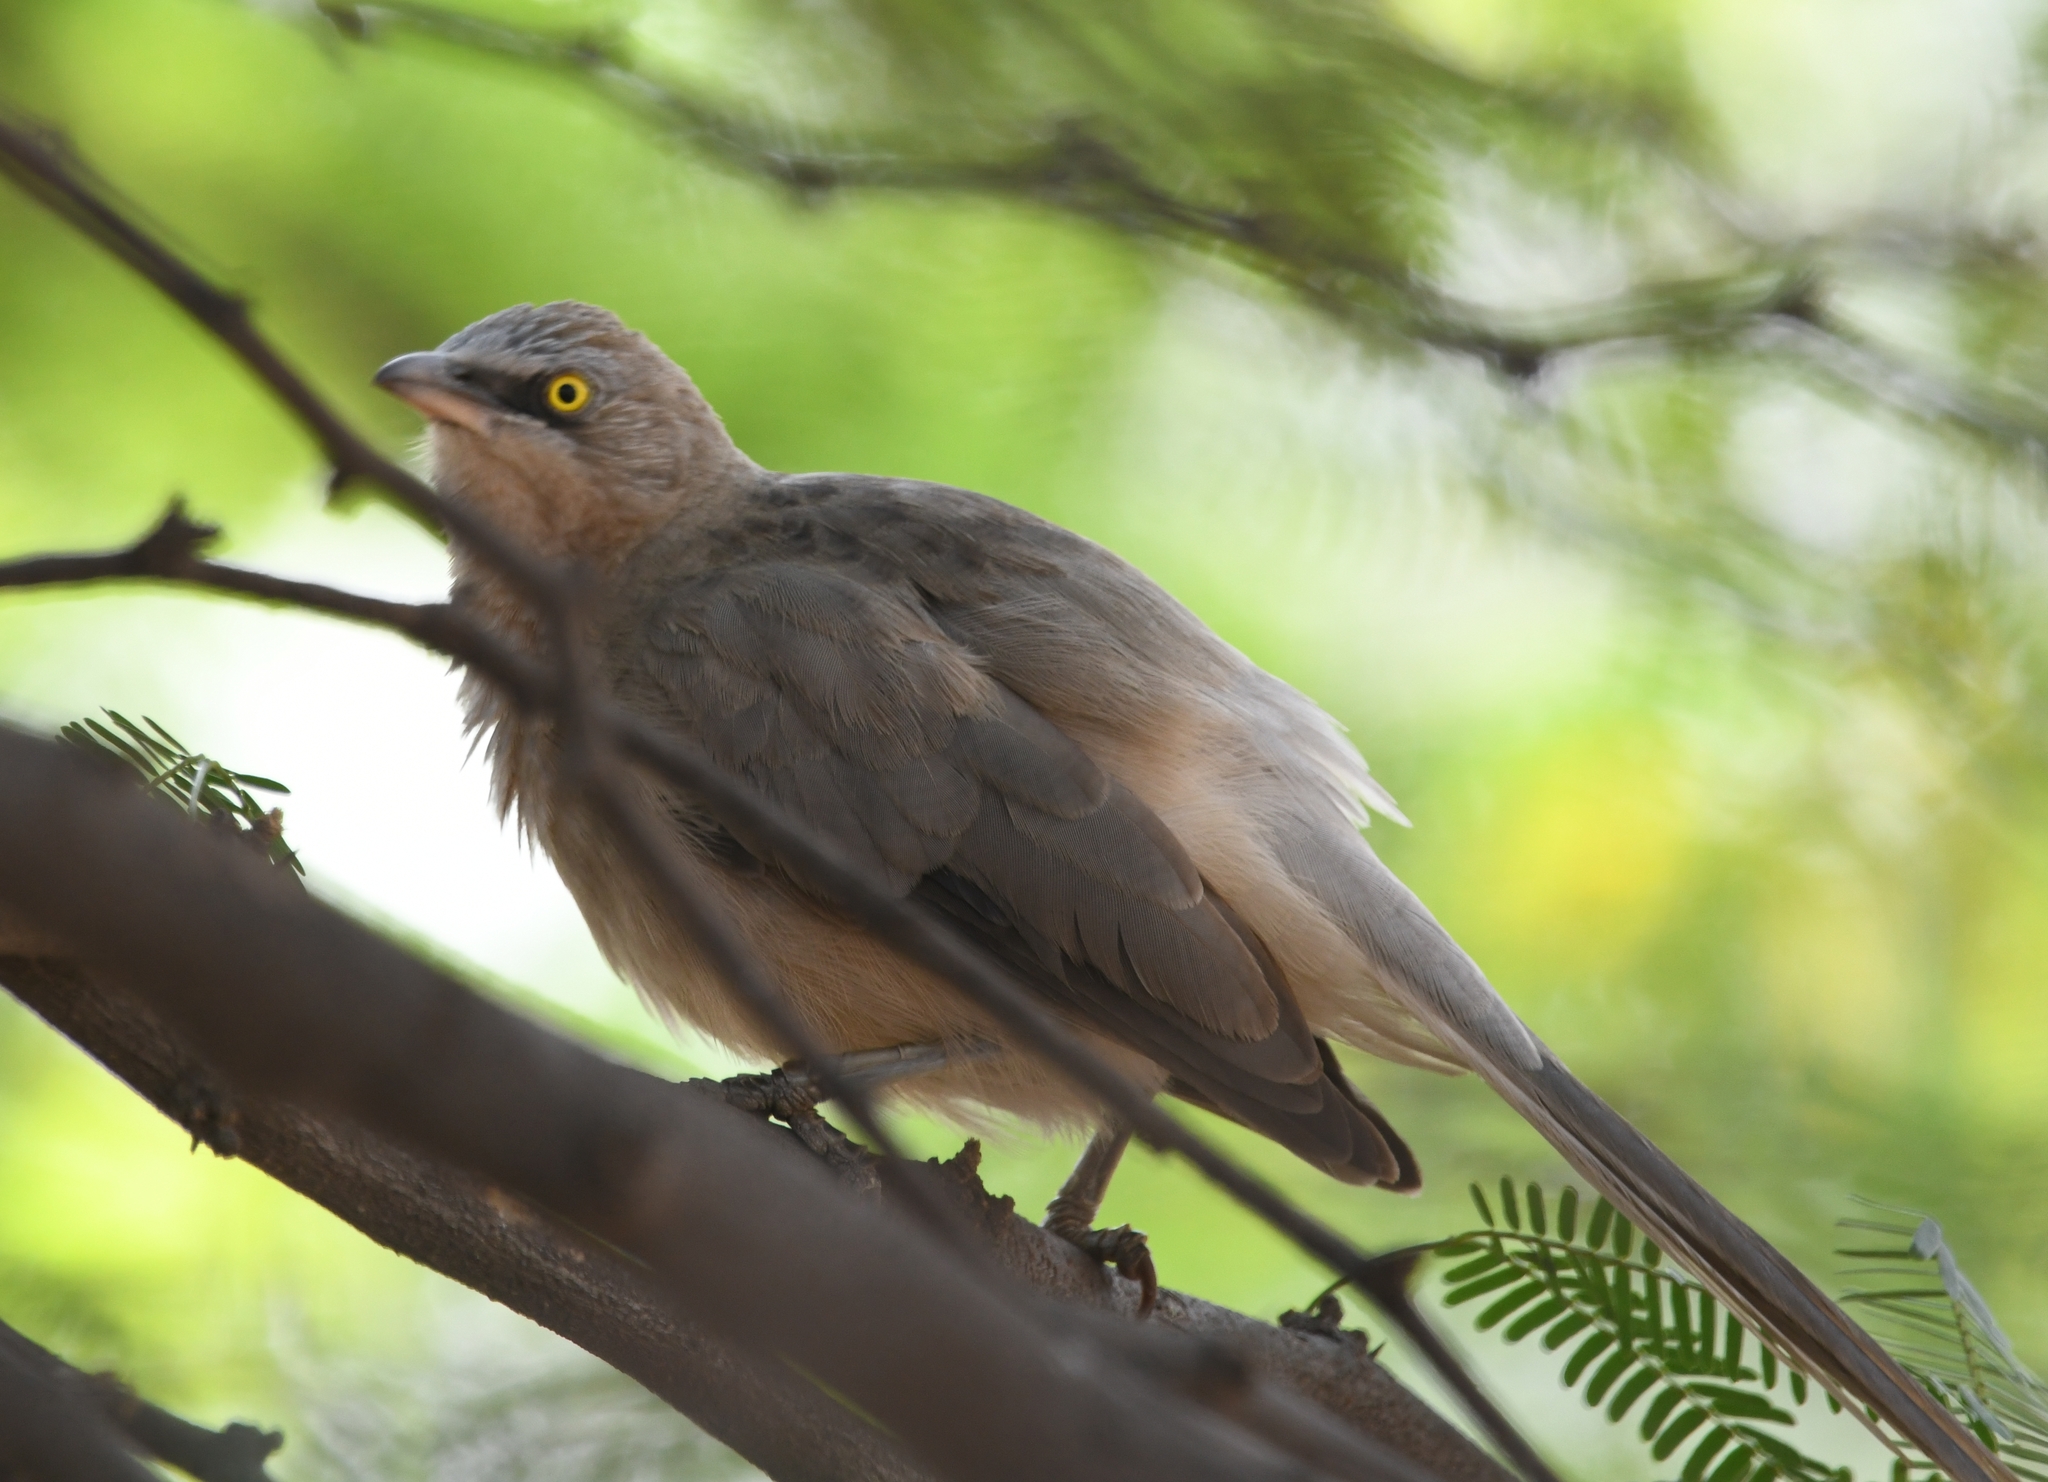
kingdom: Animalia
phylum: Chordata
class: Aves
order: Passeriformes
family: Leiothrichidae
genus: Turdoides
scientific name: Turdoides malcolmi
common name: Large grey babbler
